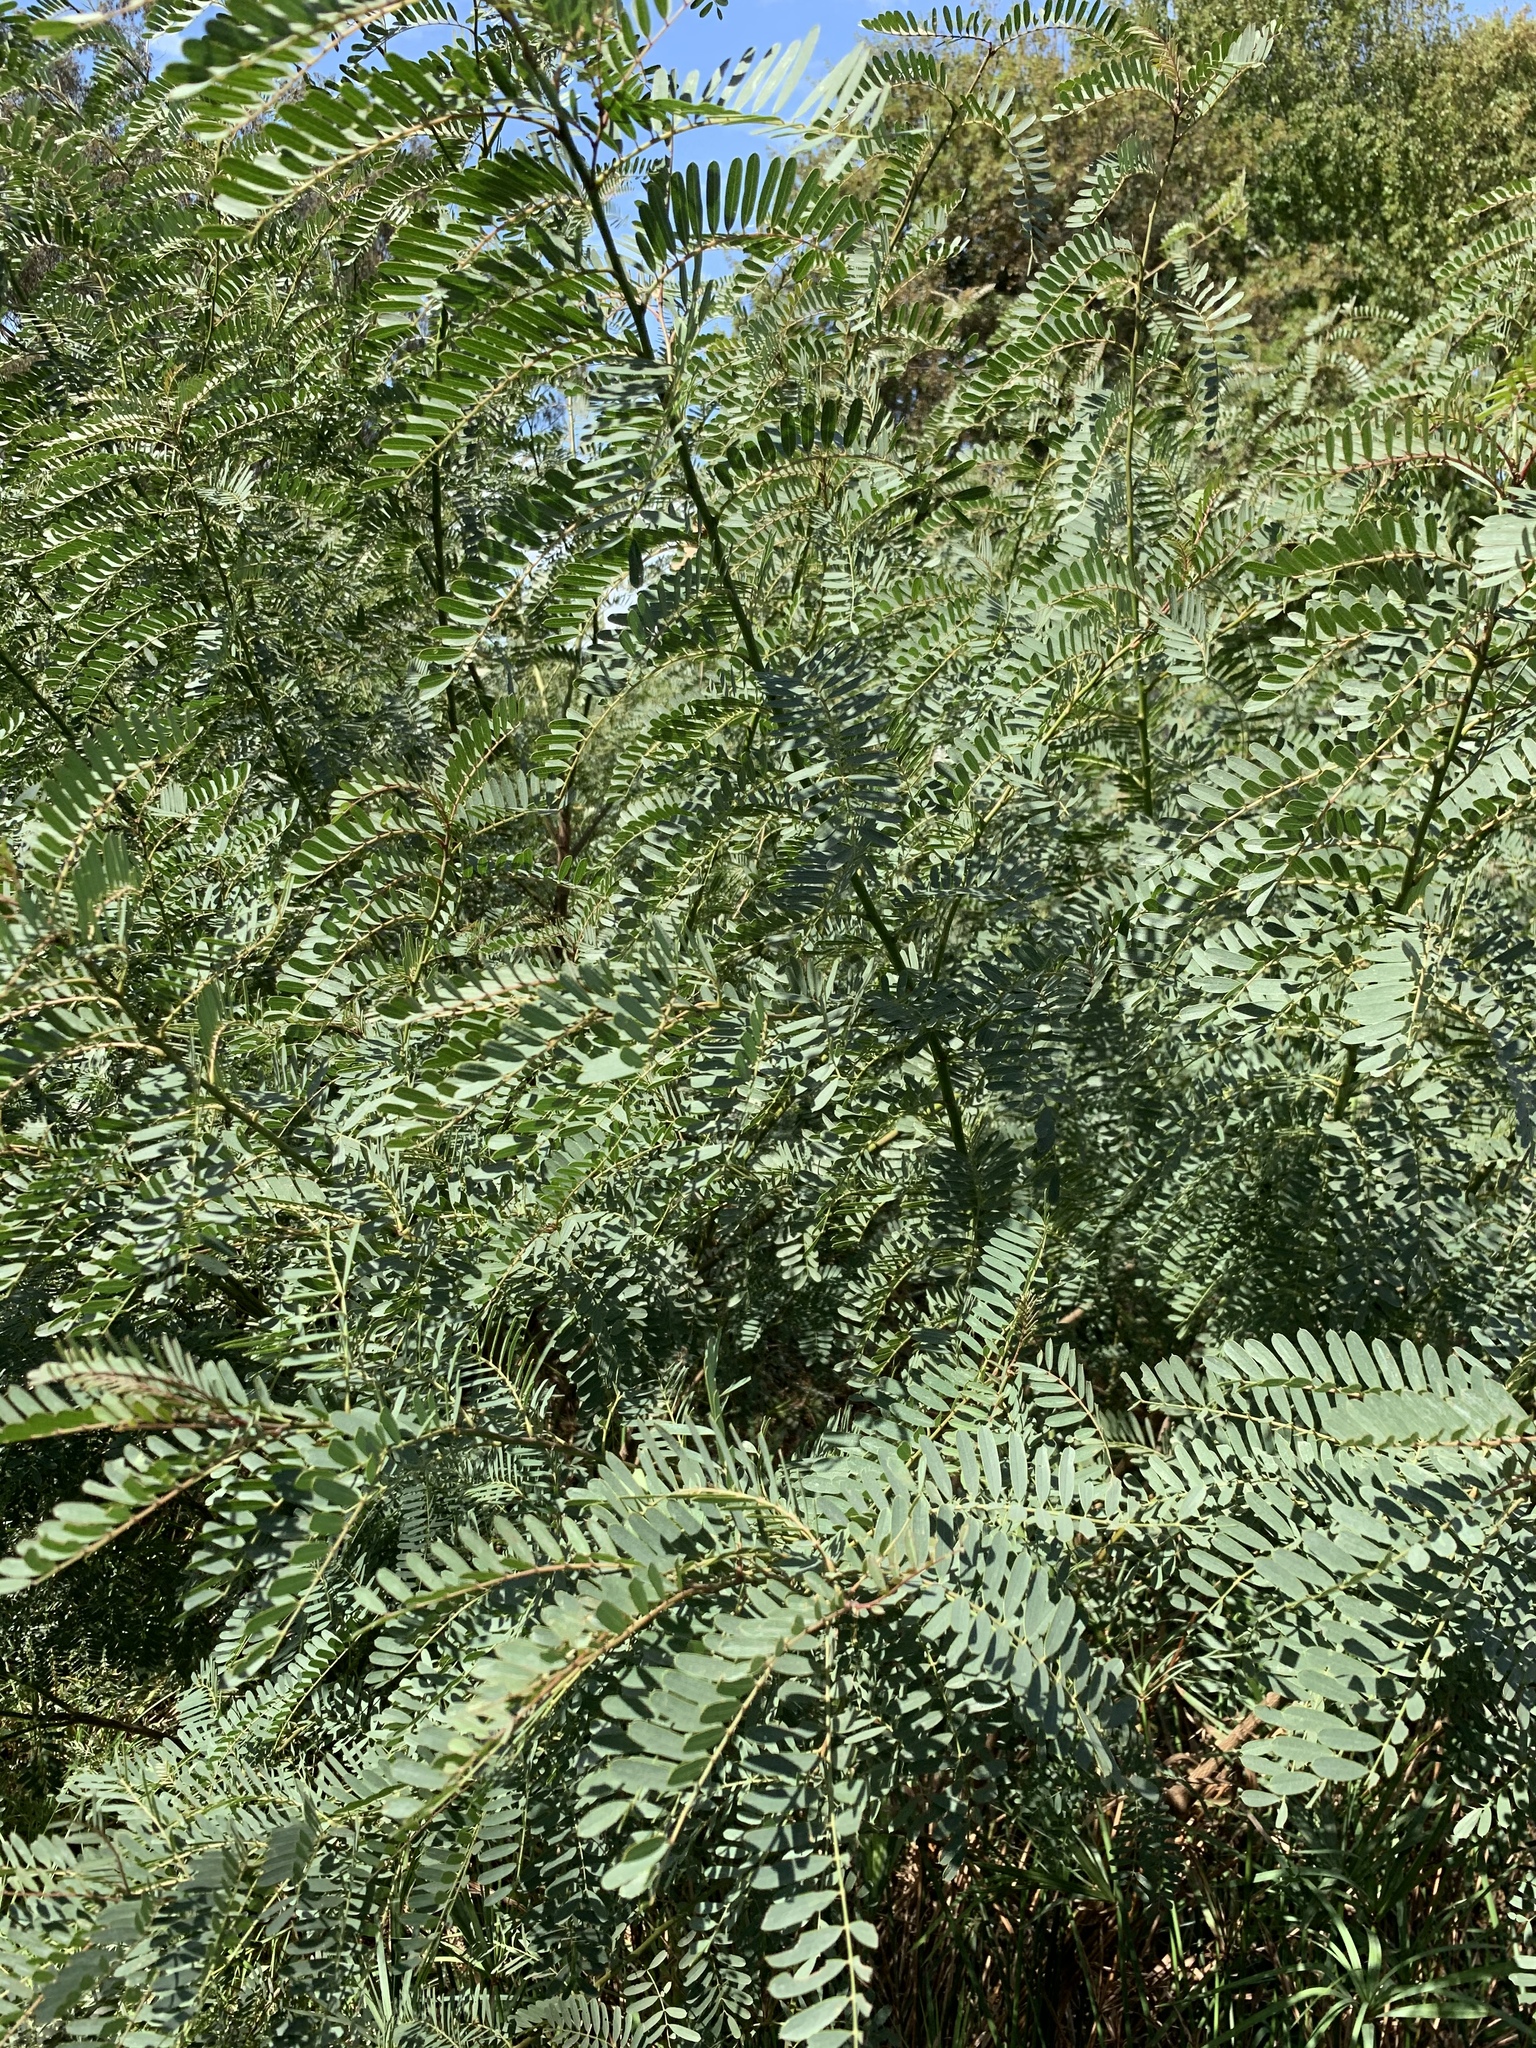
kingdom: Plantae
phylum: Tracheophyta
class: Magnoliopsida
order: Fabales
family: Fabaceae
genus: Sesbania
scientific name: Sesbania punicea
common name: Rattlebox
